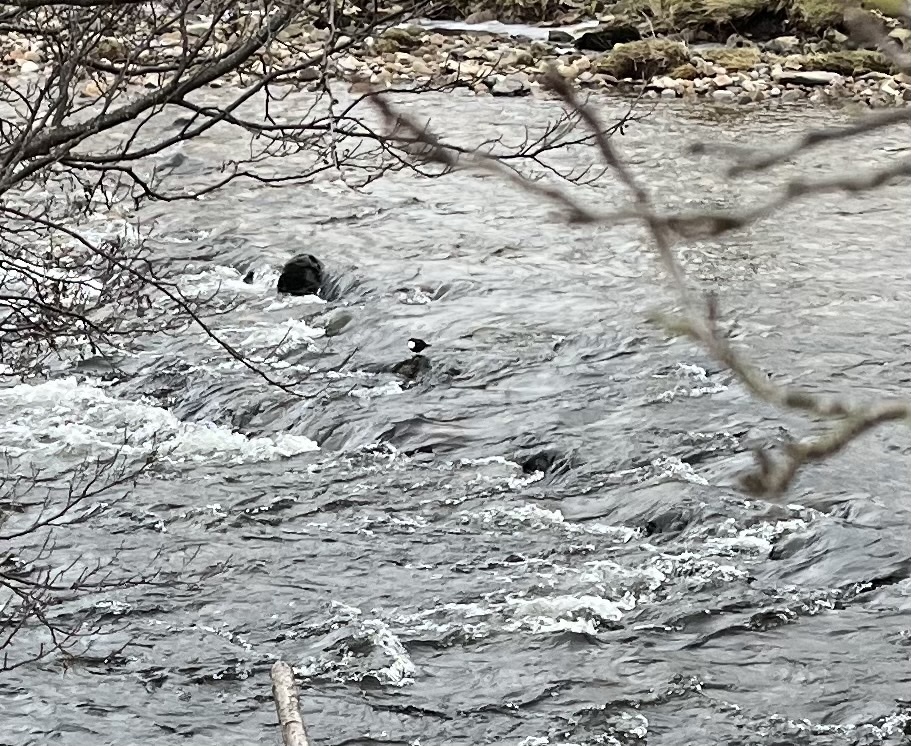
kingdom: Animalia
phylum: Chordata
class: Aves
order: Passeriformes
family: Cinclidae
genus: Cinclus
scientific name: Cinclus cinclus
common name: White-throated dipper
